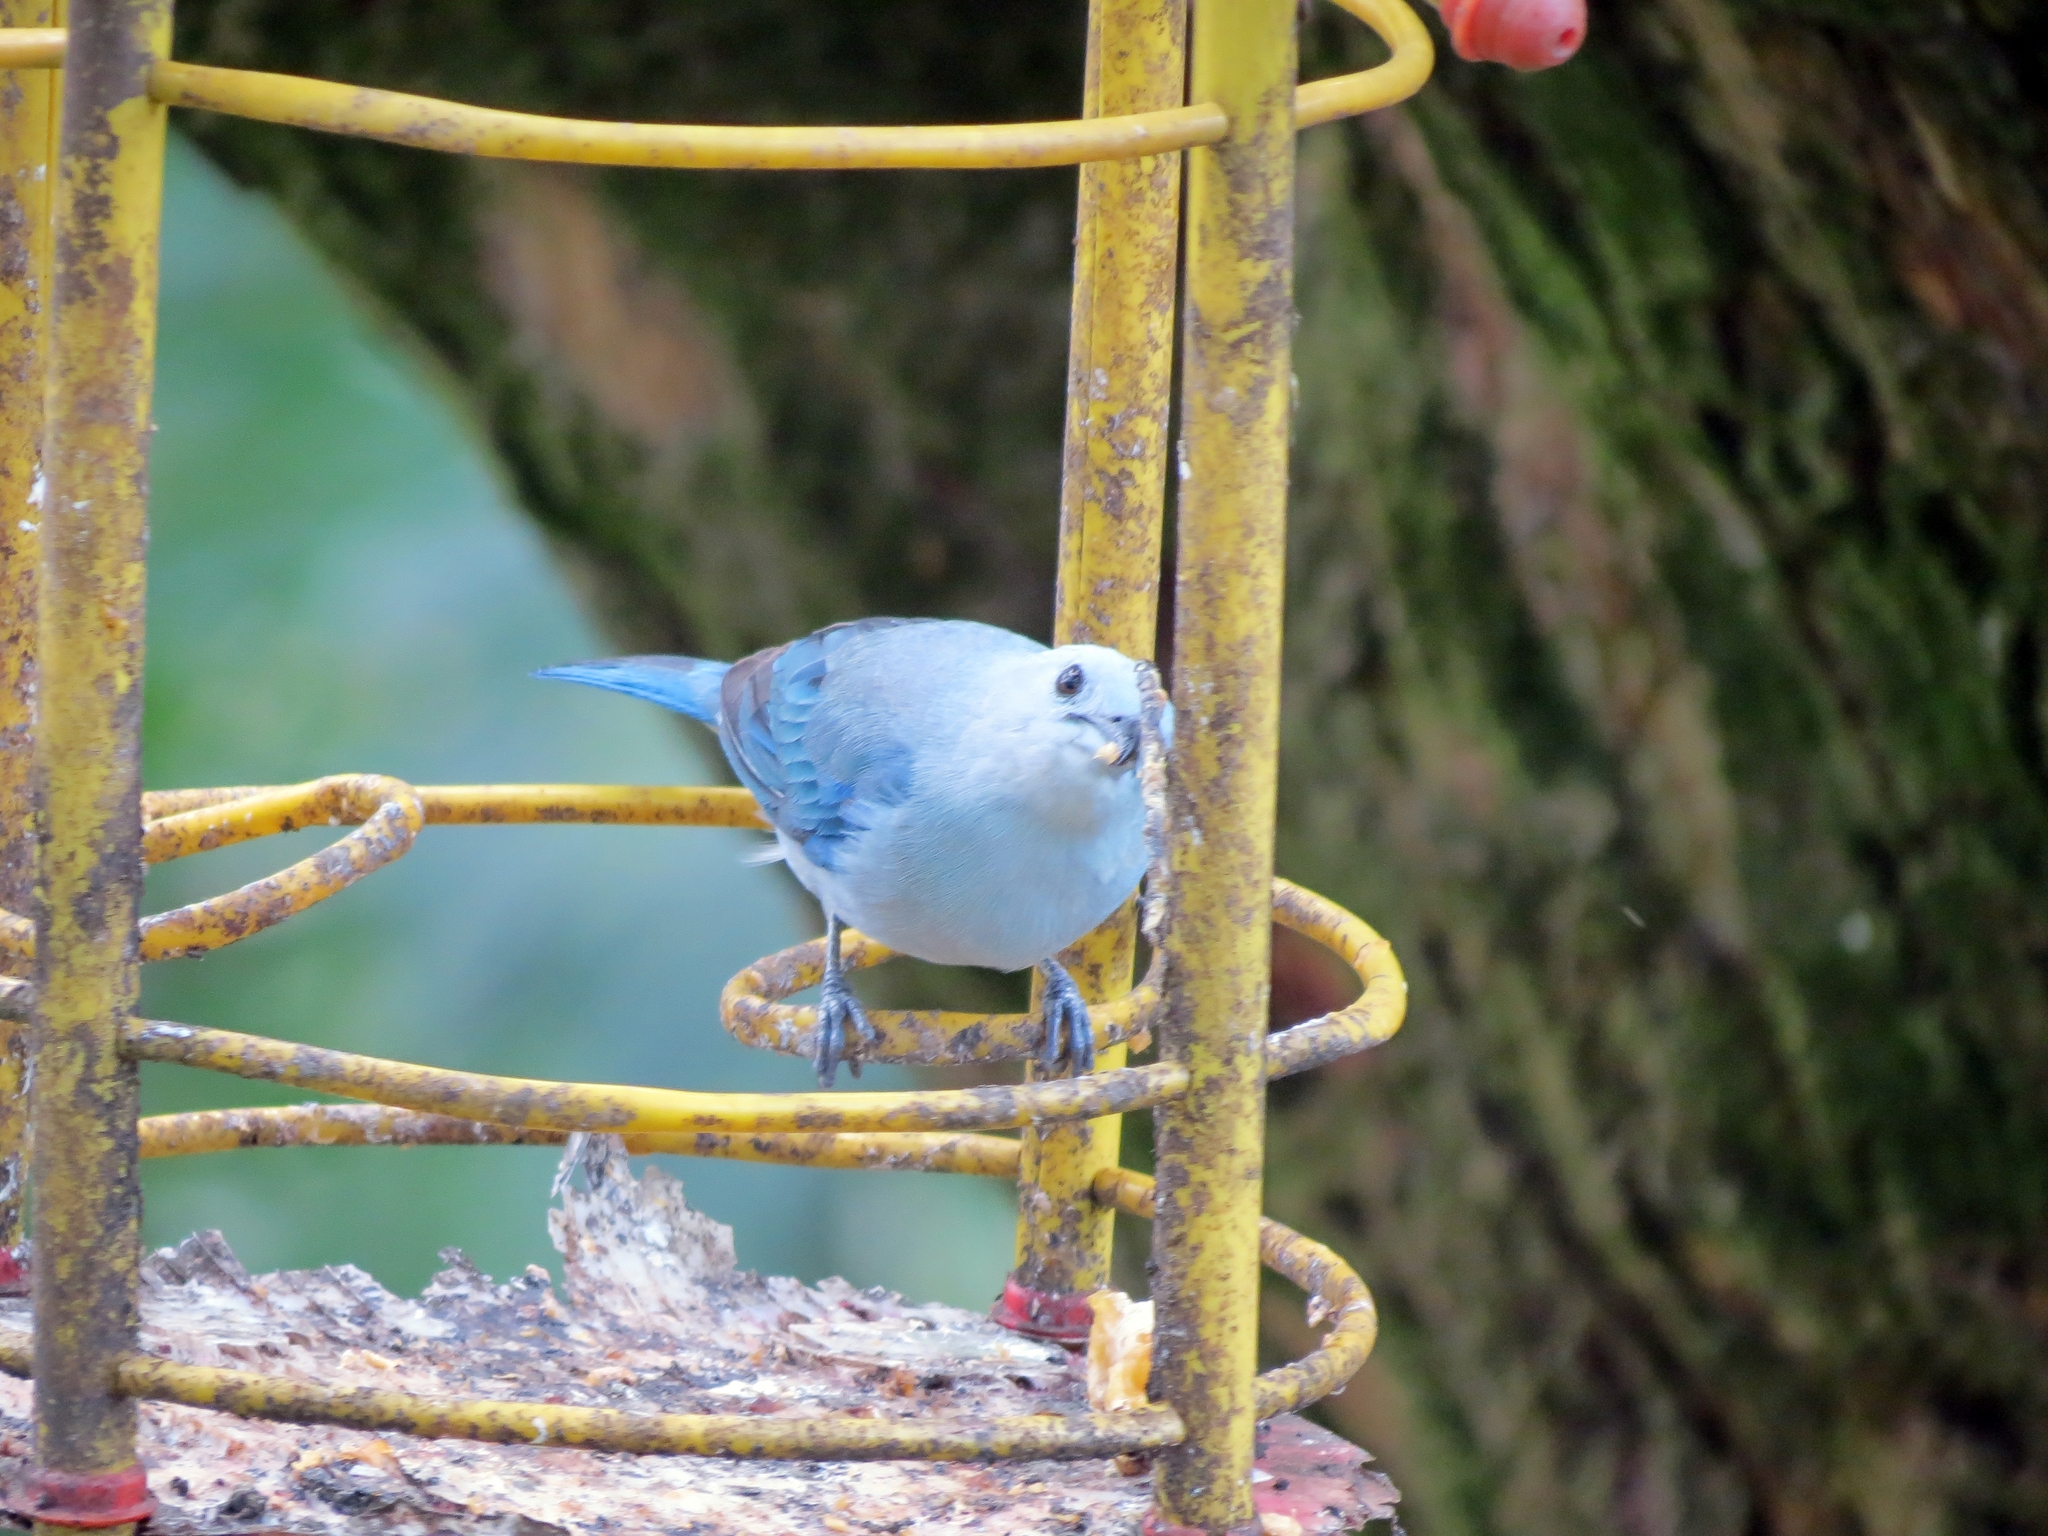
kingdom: Animalia
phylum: Chordata
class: Aves
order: Passeriformes
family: Thraupidae
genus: Thraupis
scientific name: Thraupis episcopus
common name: Blue-grey tanager
